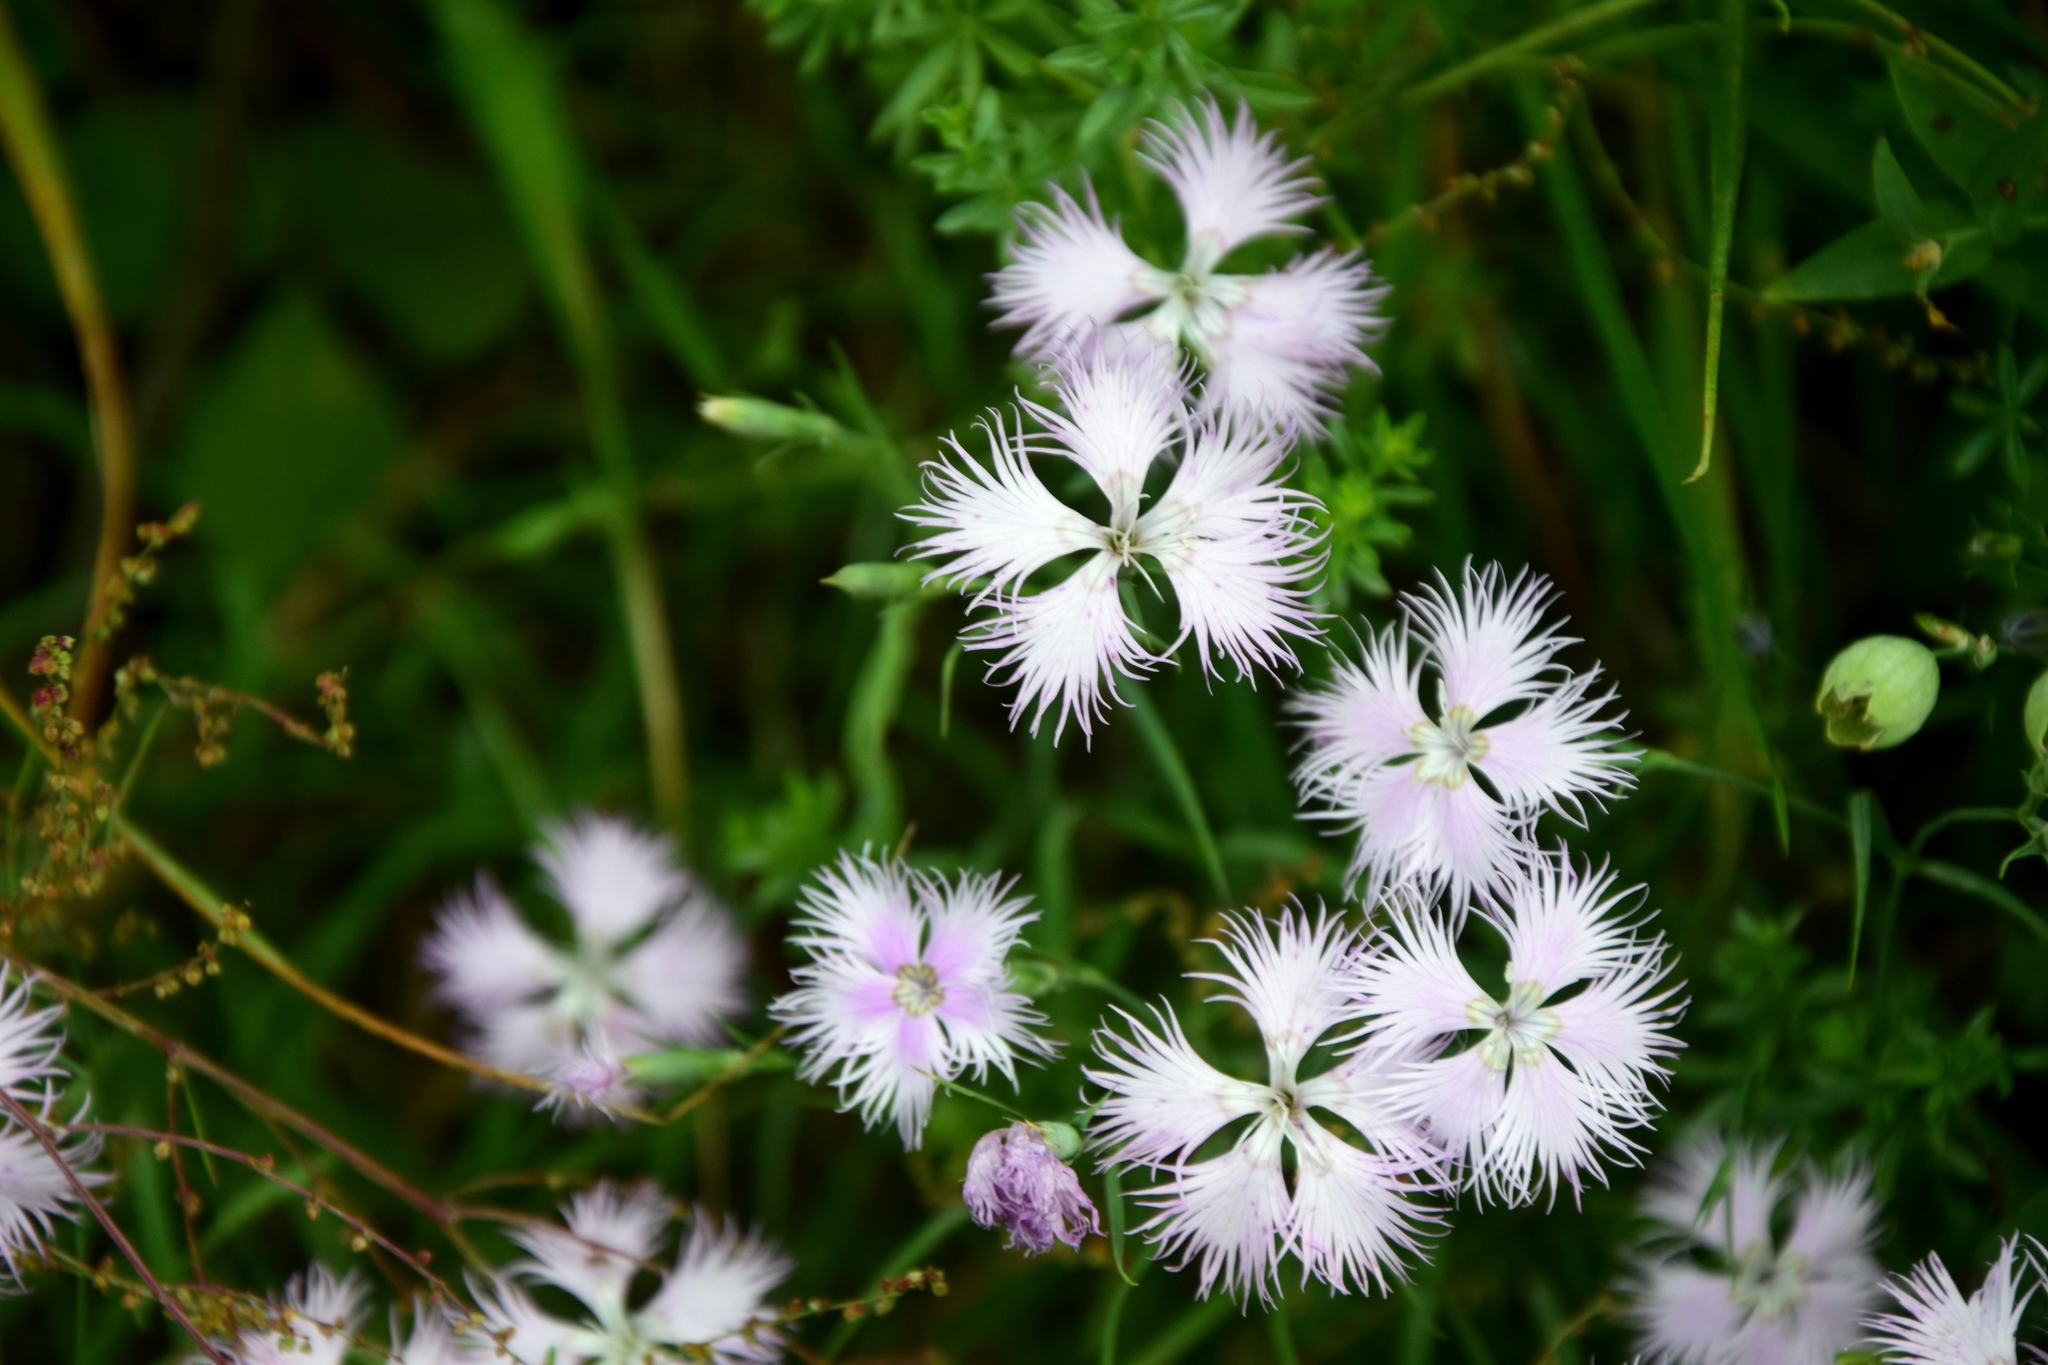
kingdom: Plantae
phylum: Tracheophyta
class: Magnoliopsida
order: Caryophyllales
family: Caryophyllaceae
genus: Dianthus
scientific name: Dianthus hyssopifolius
